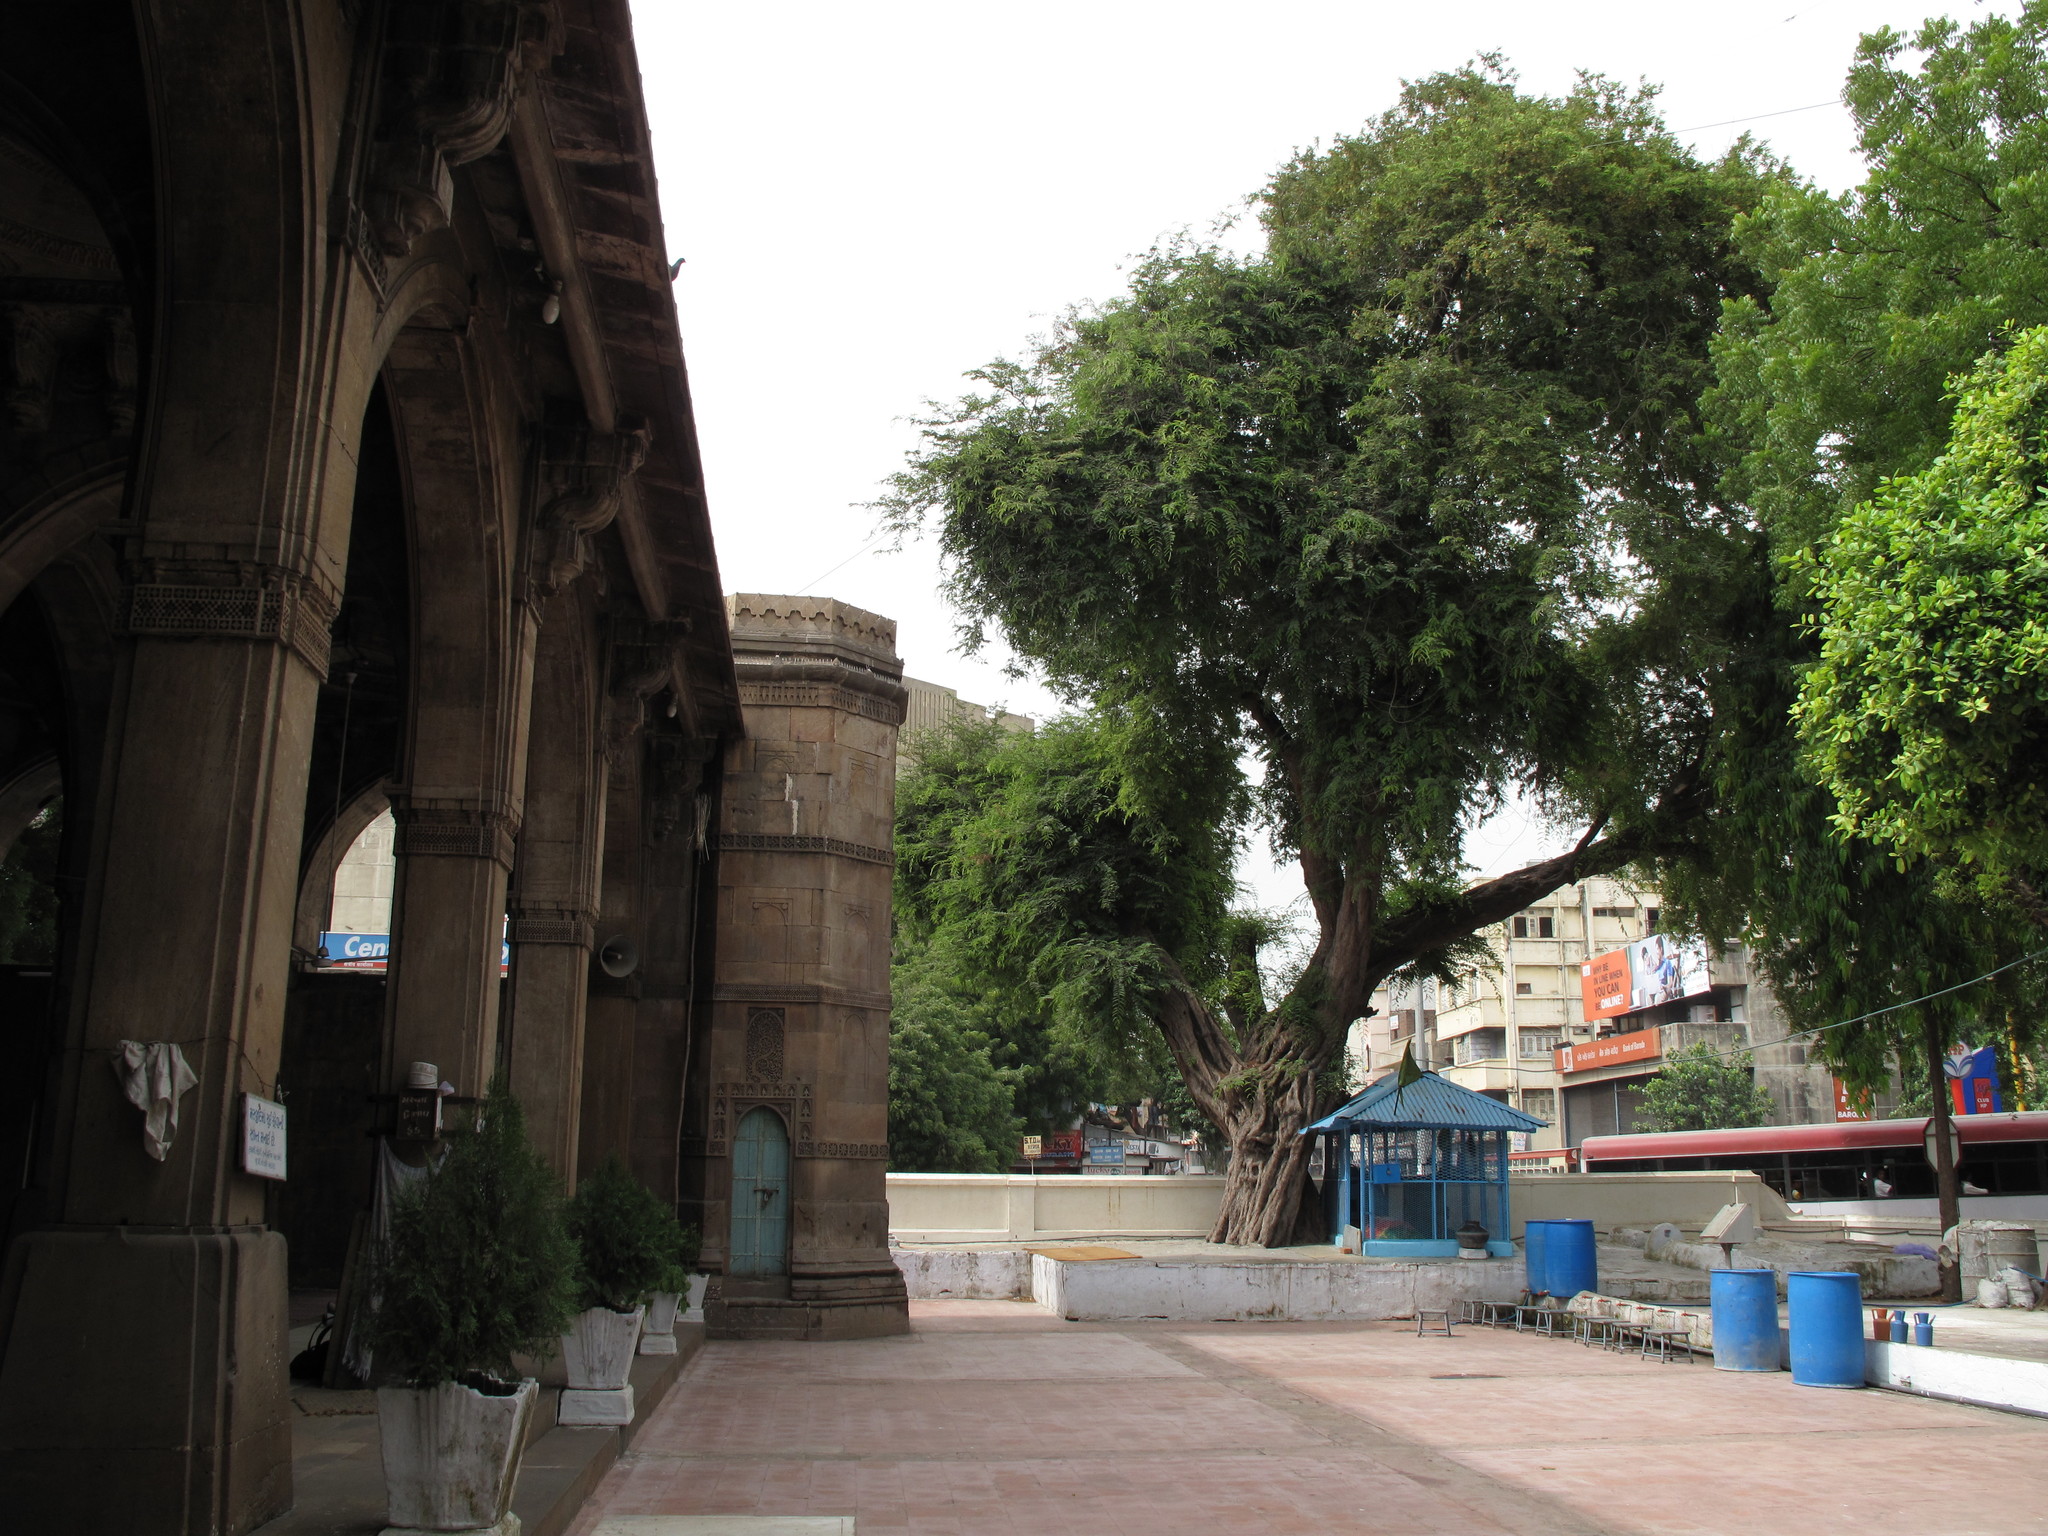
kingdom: Plantae
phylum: Tracheophyta
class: Magnoliopsida
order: Fabales
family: Fabaceae
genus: Tamarindus
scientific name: Tamarindus indica
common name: Tamarind
